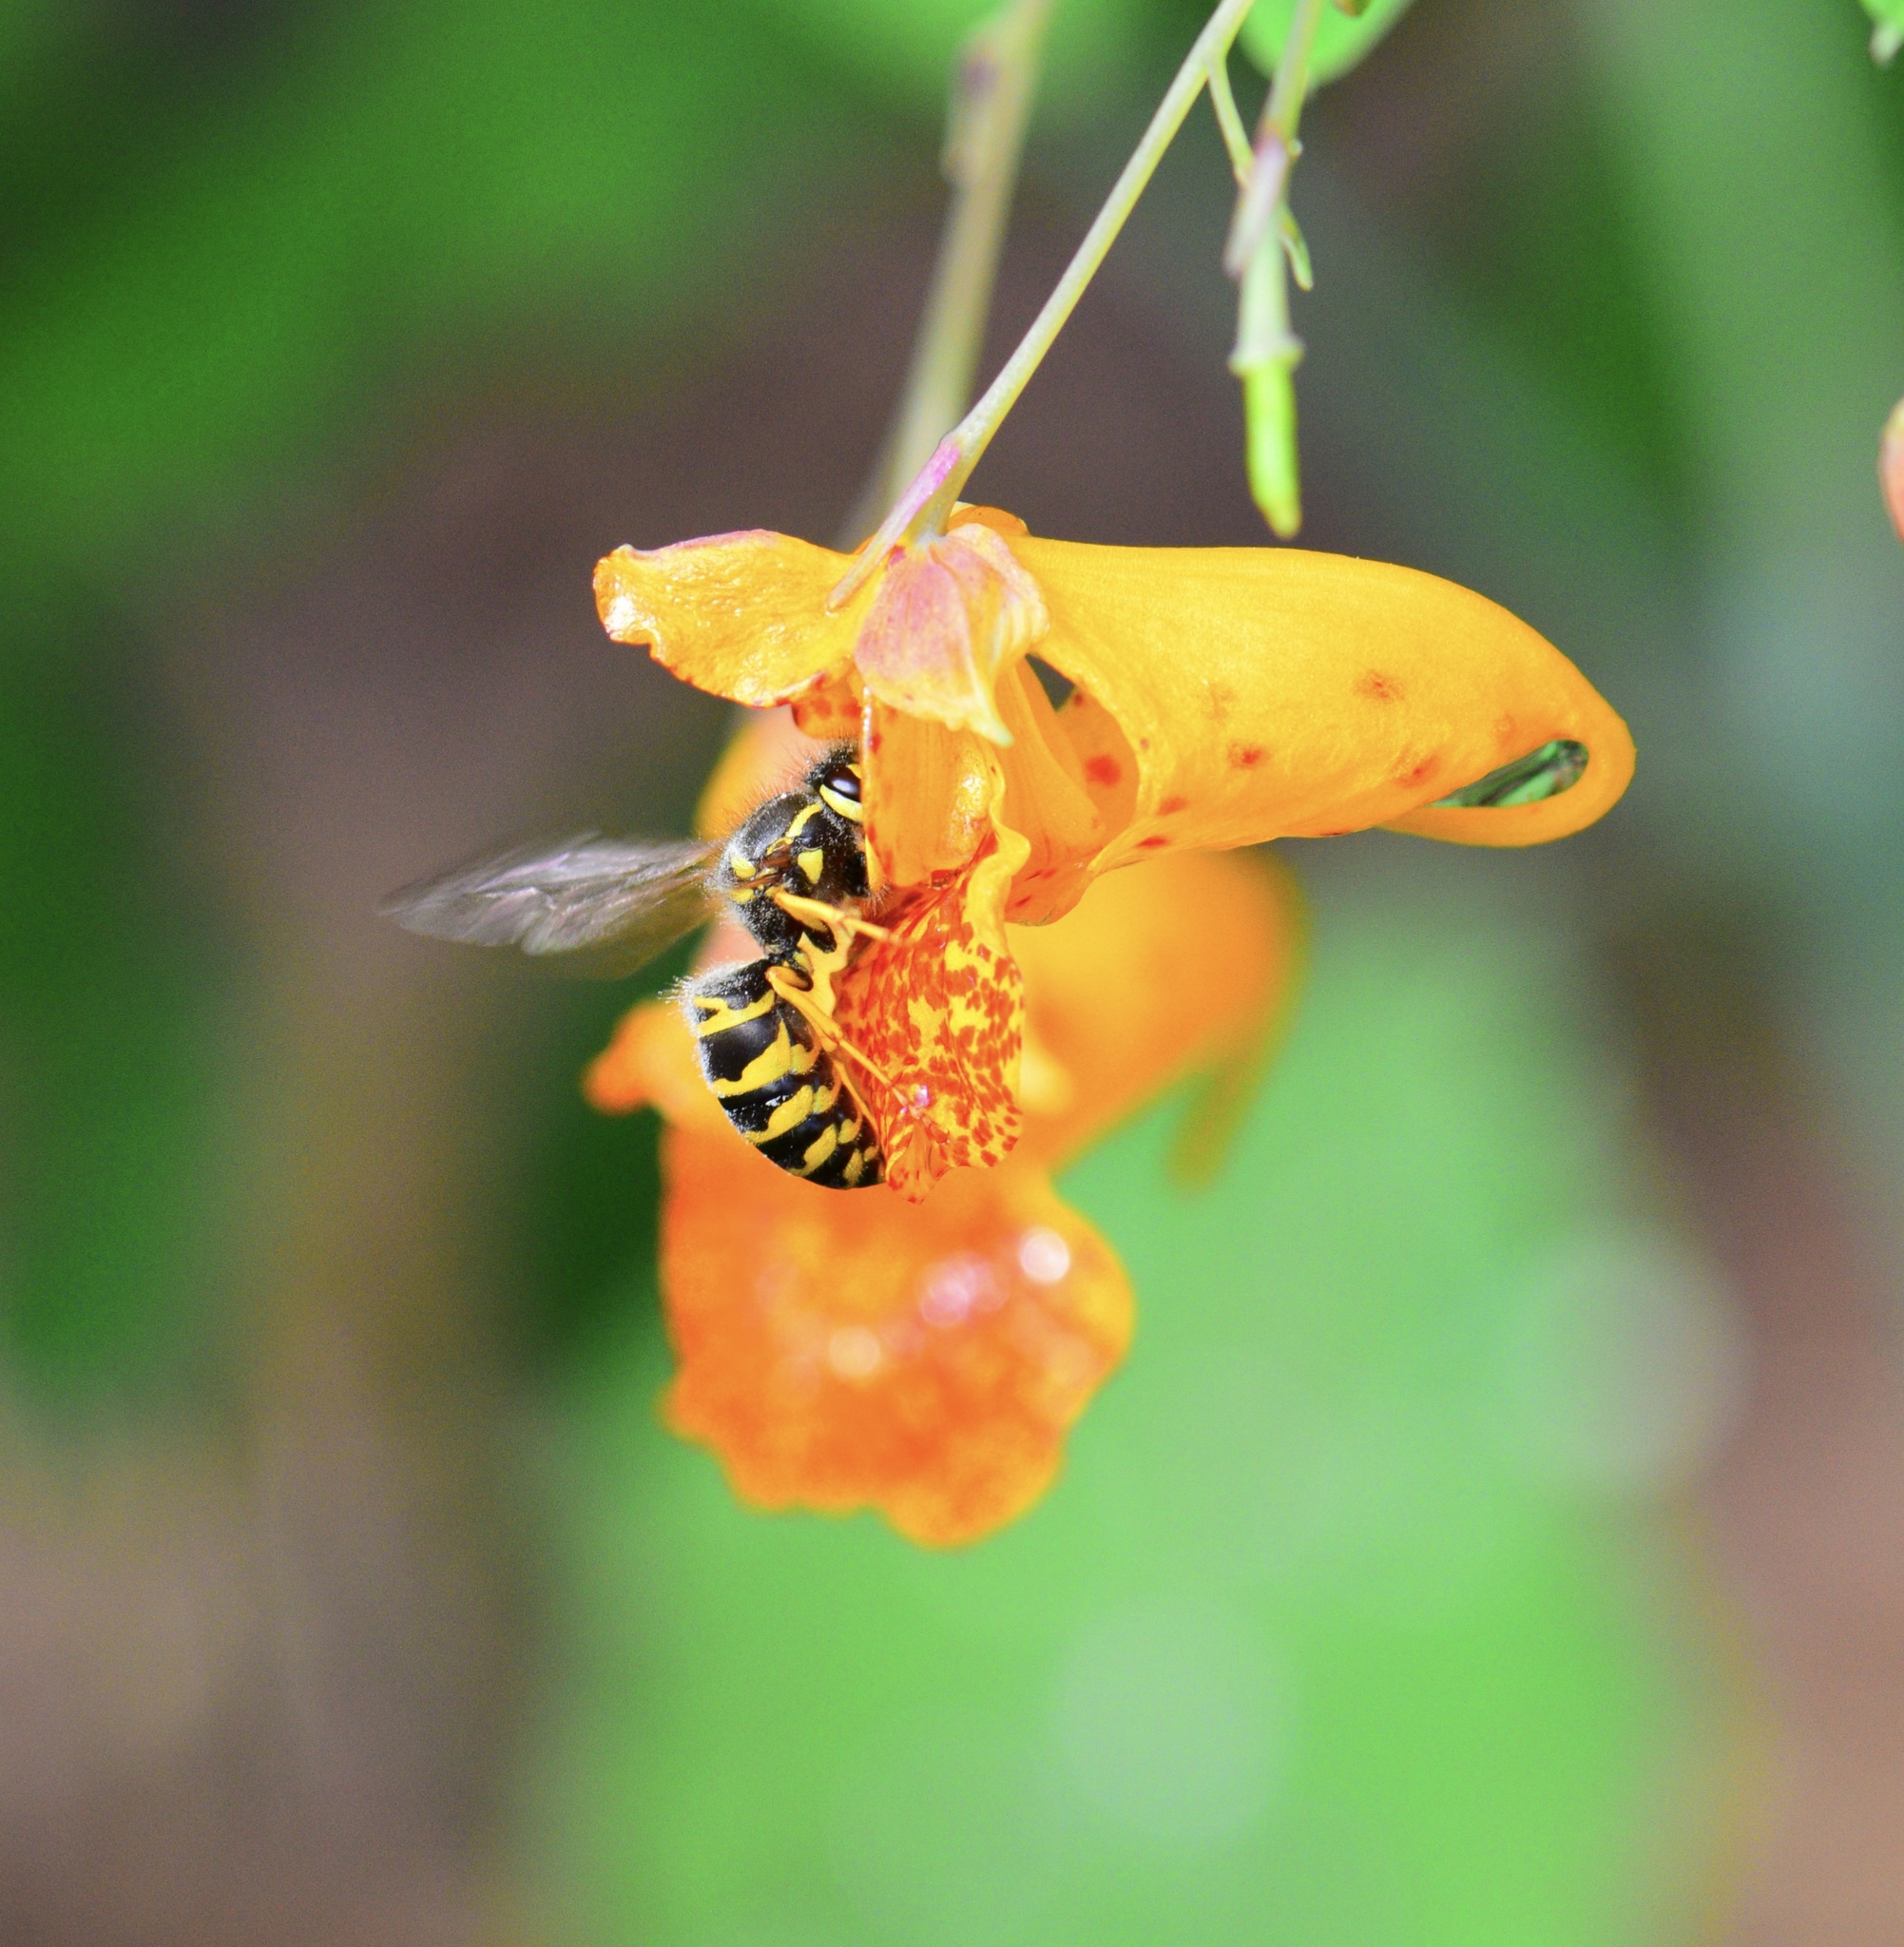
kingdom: Animalia
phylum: Arthropoda
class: Insecta
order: Hymenoptera
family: Vespidae
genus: Vespula
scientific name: Vespula maculifrons
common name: Eastern yellowjacket
